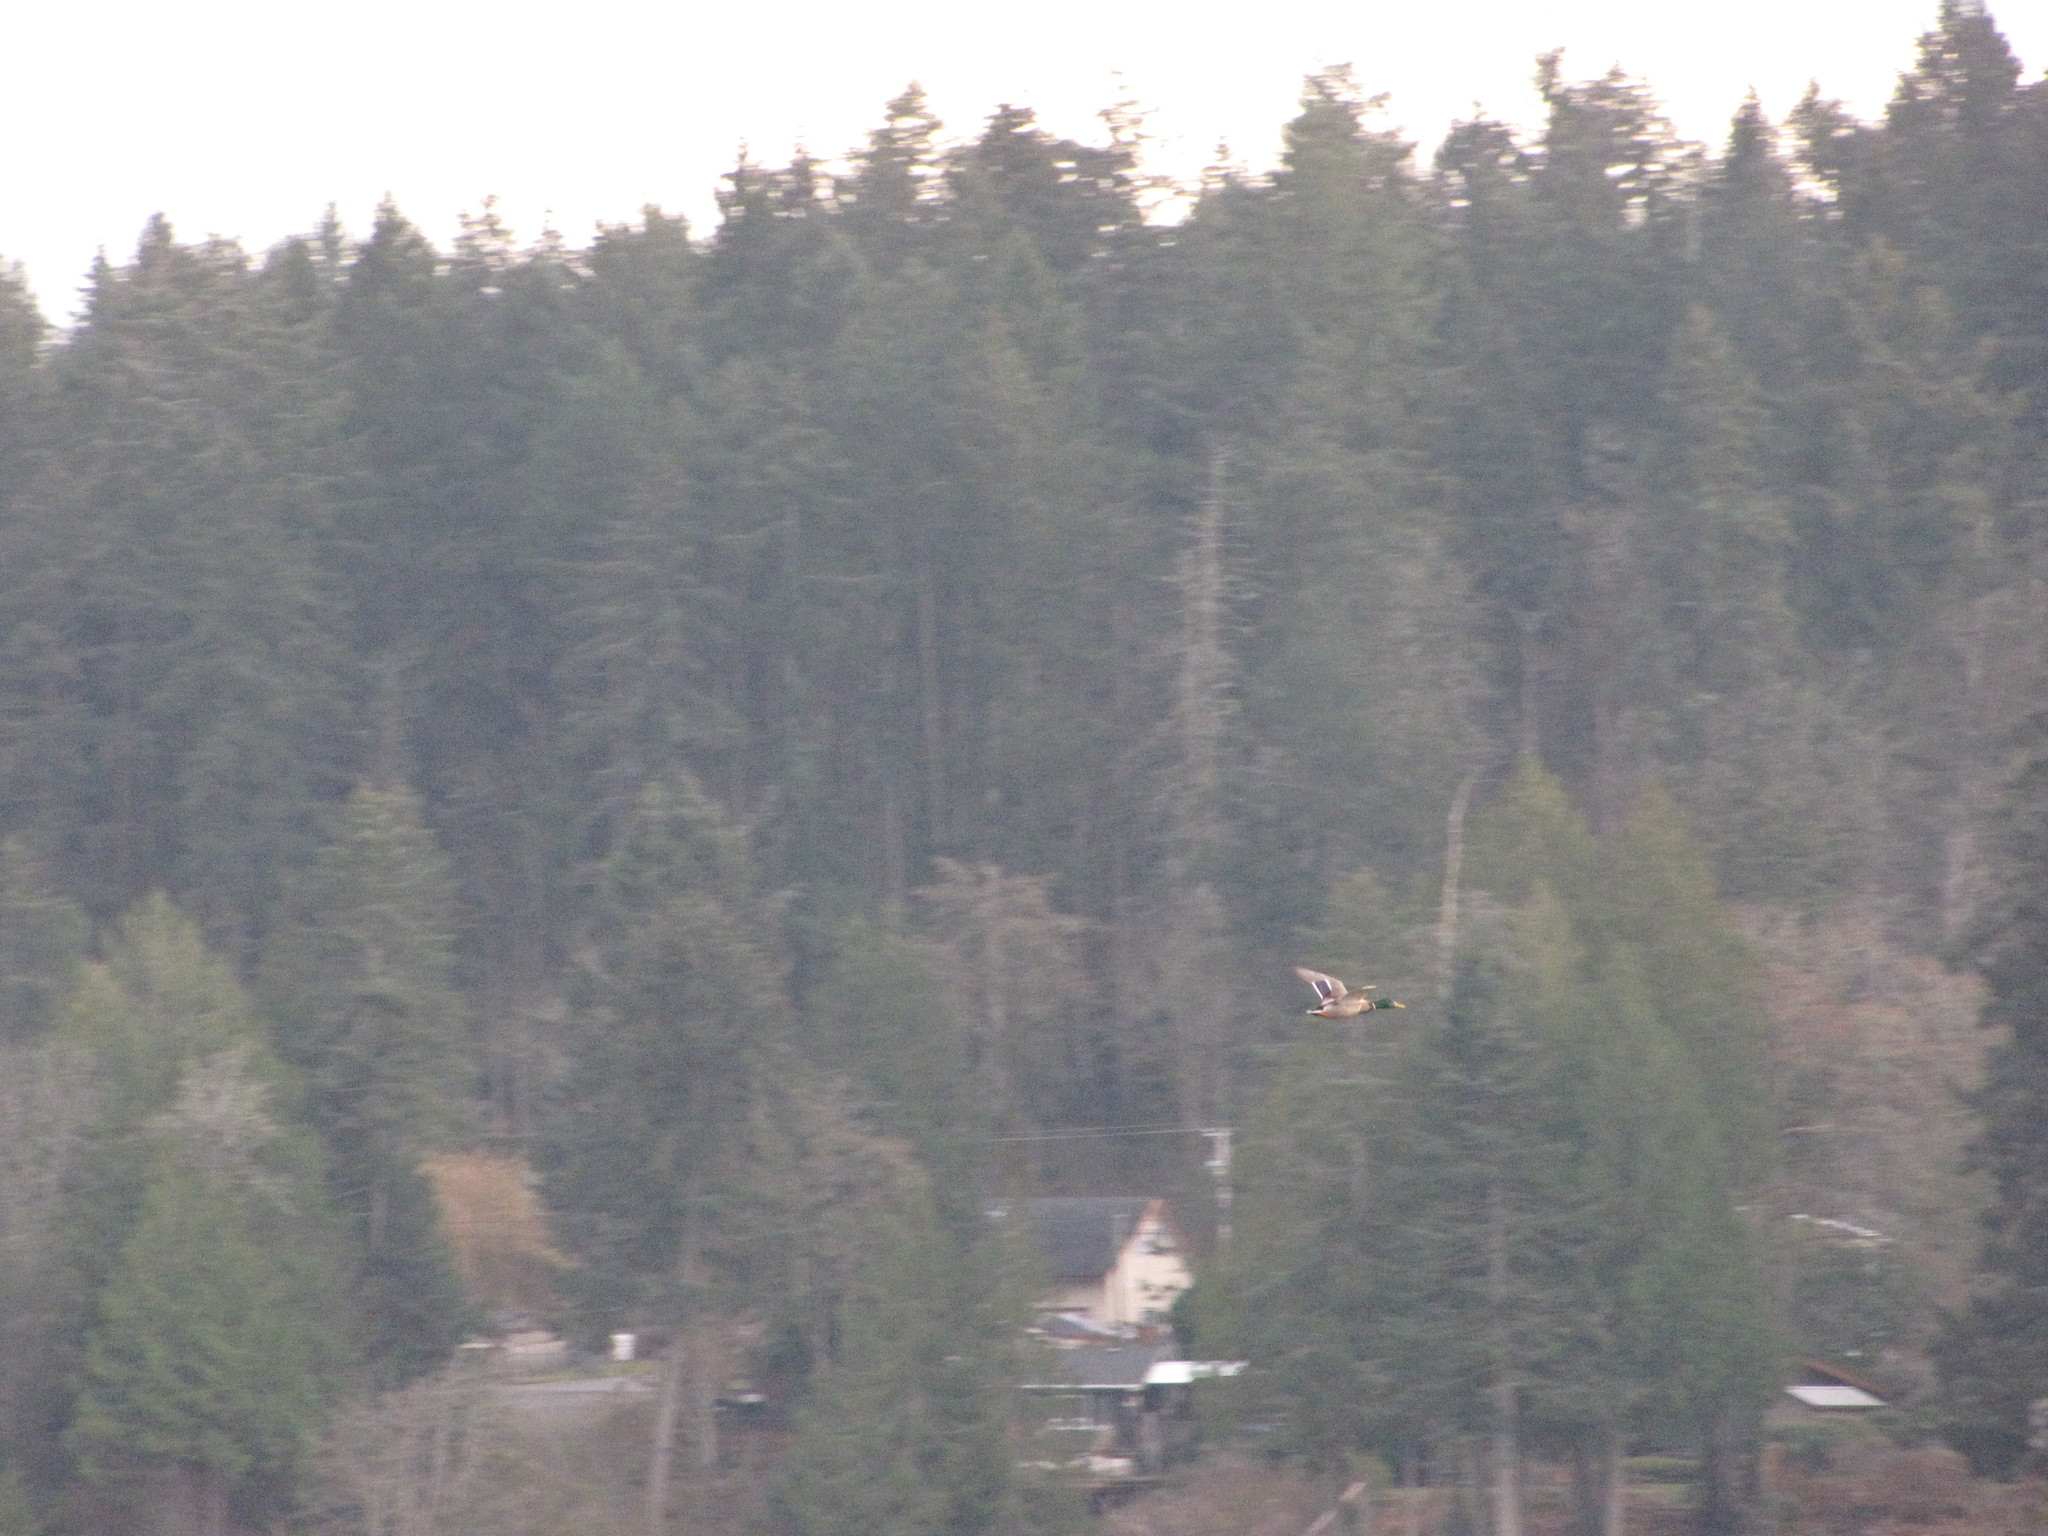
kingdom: Animalia
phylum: Chordata
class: Aves
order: Anseriformes
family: Anatidae
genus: Anas
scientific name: Anas platyrhynchos
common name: Mallard
